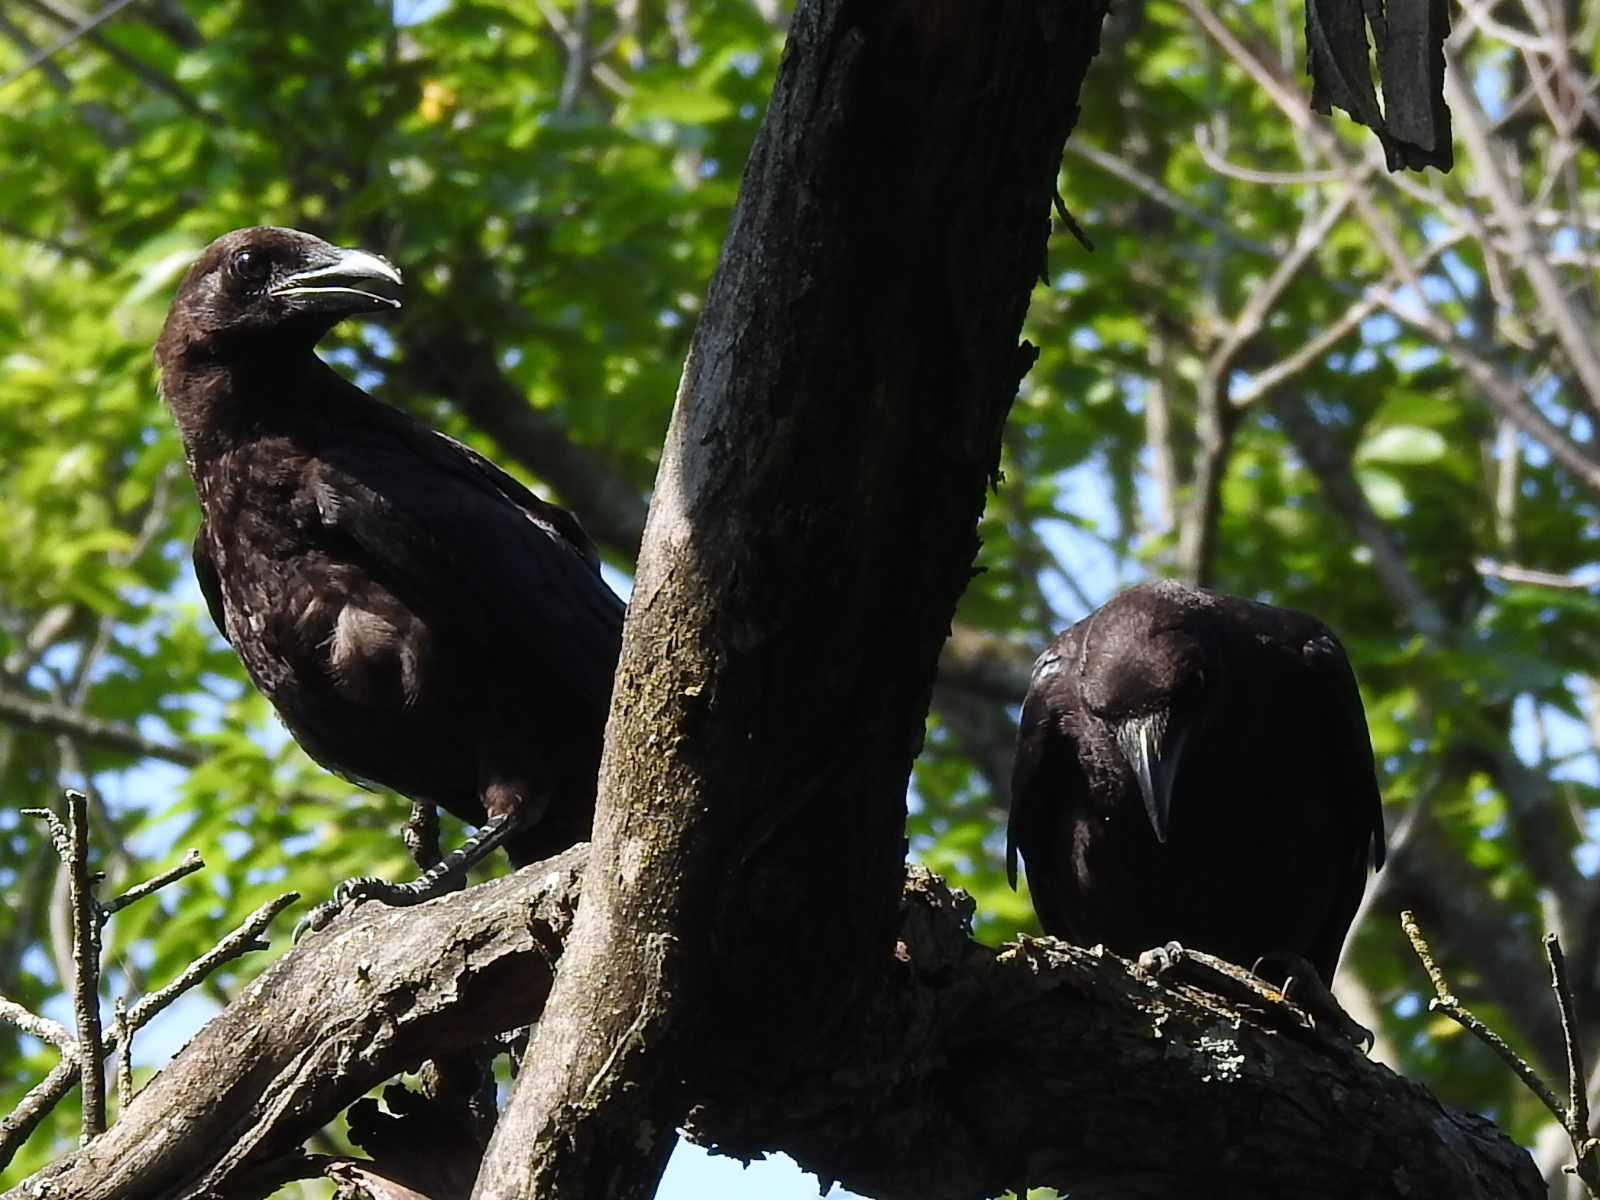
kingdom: Animalia
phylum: Chordata
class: Aves
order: Passeriformes
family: Corvidae
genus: Corvus
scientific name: Corvus brachyrhynchos
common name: American crow
